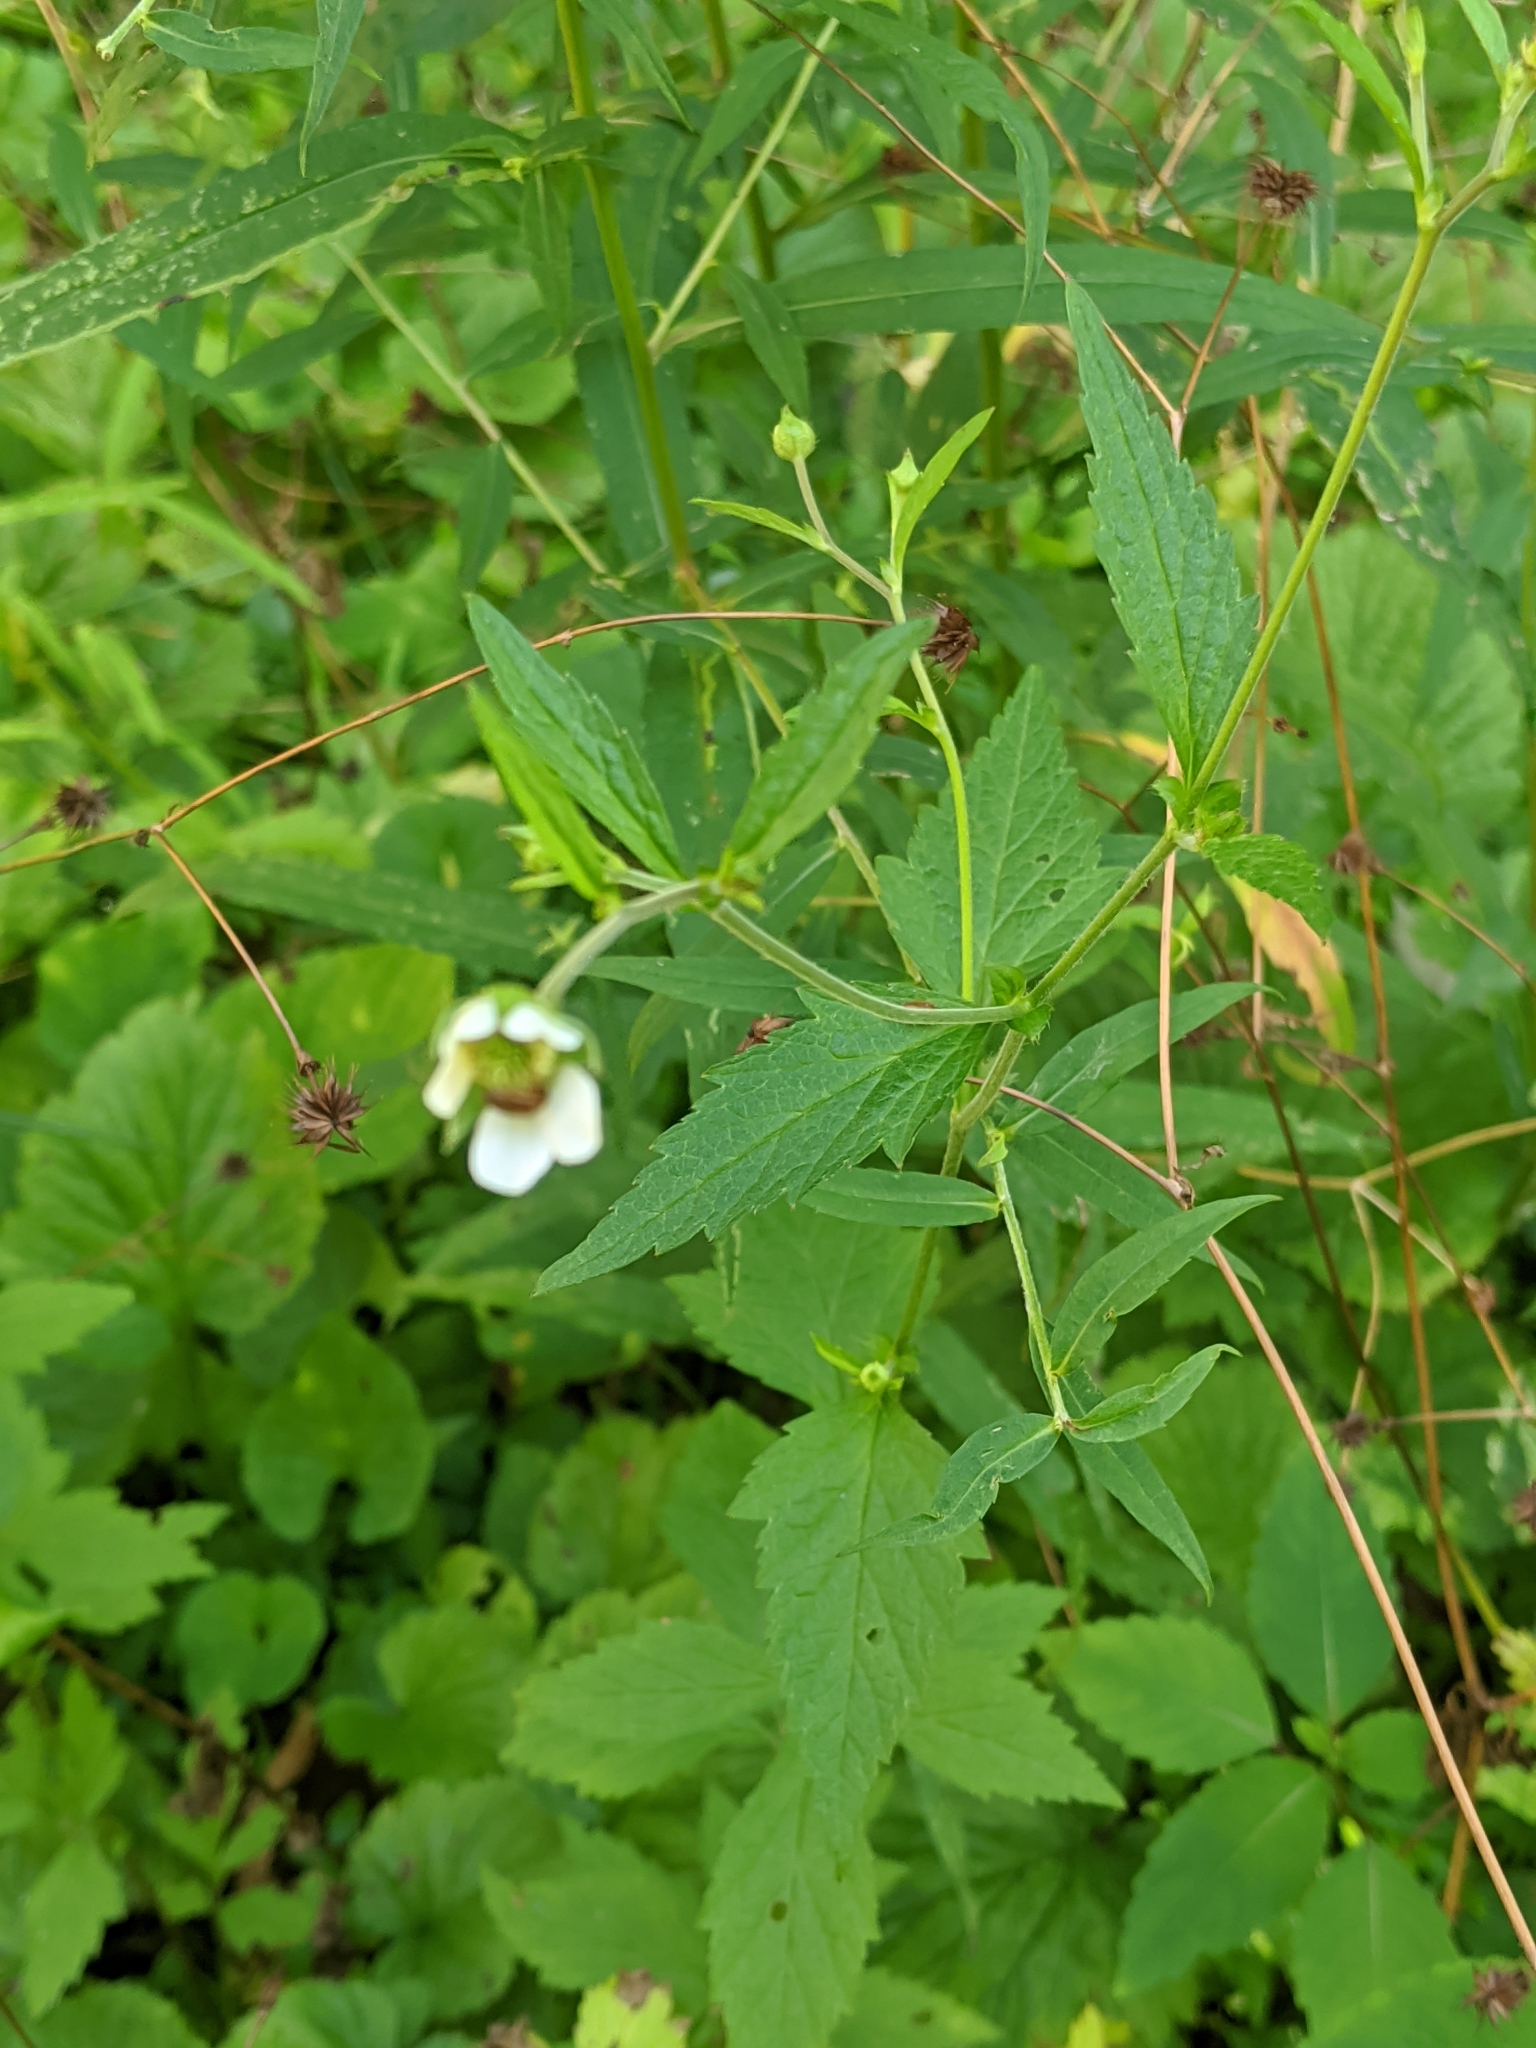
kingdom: Plantae
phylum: Tracheophyta
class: Magnoliopsida
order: Rosales
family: Rosaceae
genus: Geum
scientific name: Geum canadense
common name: White avens
